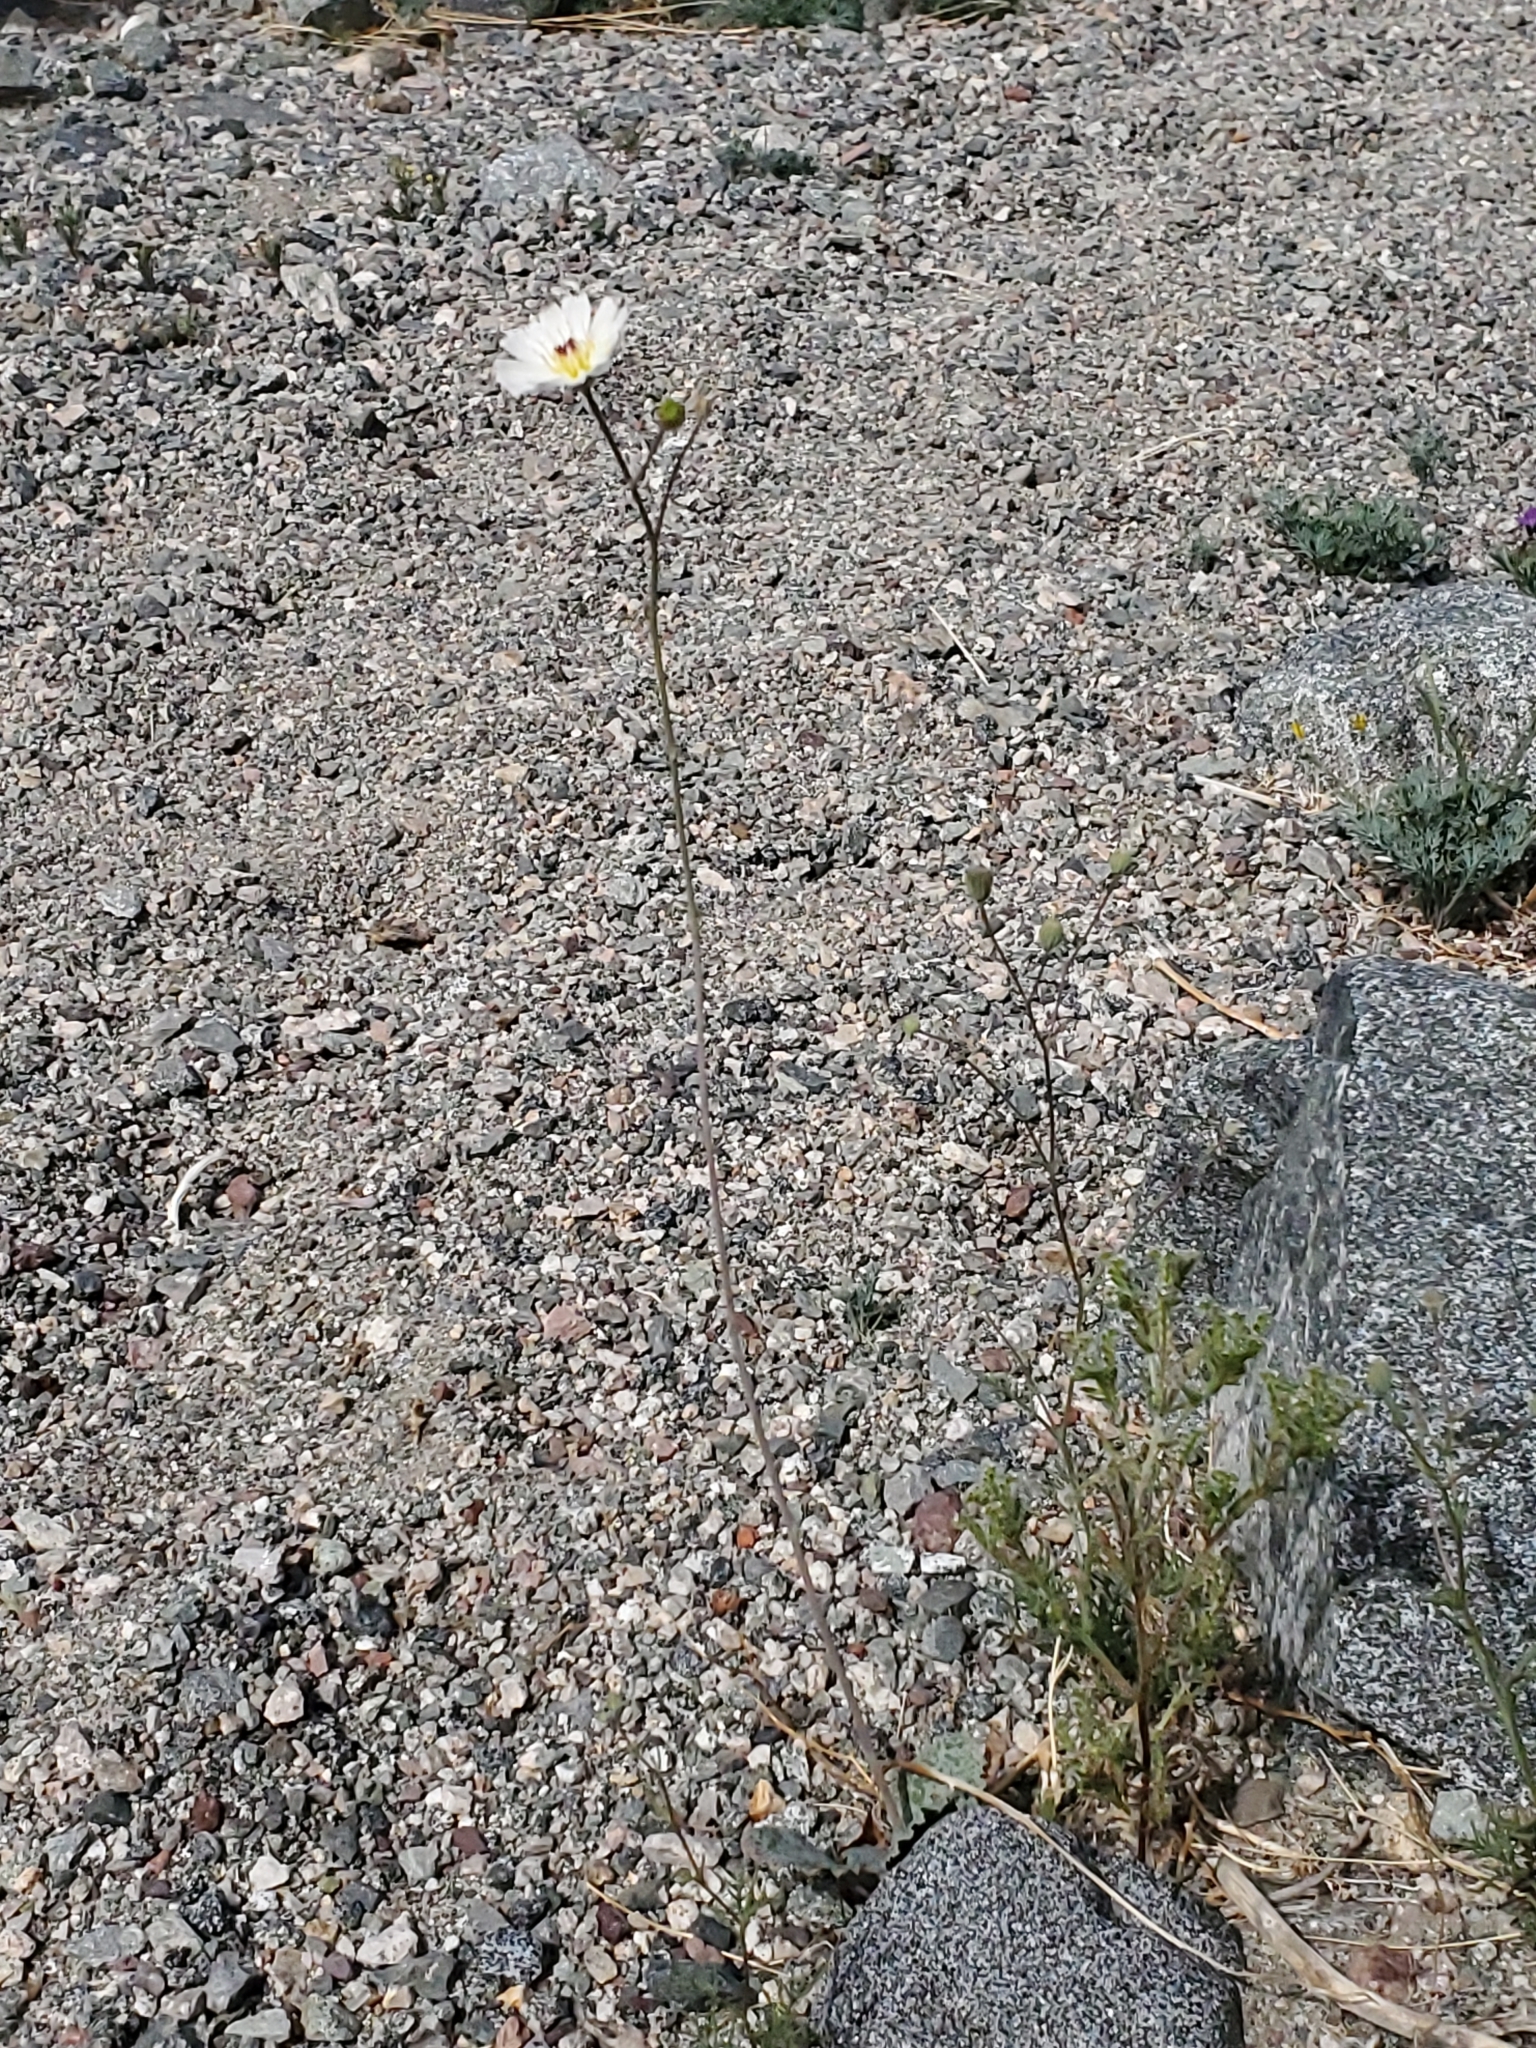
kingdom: Plantae
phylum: Tracheophyta
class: Magnoliopsida
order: Asterales
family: Asteraceae
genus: Atrichoseris
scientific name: Atrichoseris platyphylla
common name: Tobaccoweed
